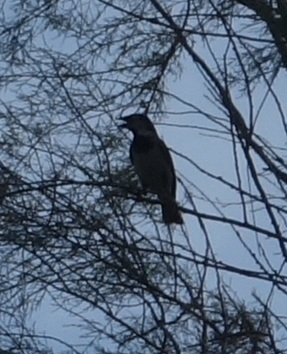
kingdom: Animalia
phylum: Chordata
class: Aves
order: Passeriformes
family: Passeridae
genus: Passer
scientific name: Passer domesticus
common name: House sparrow
